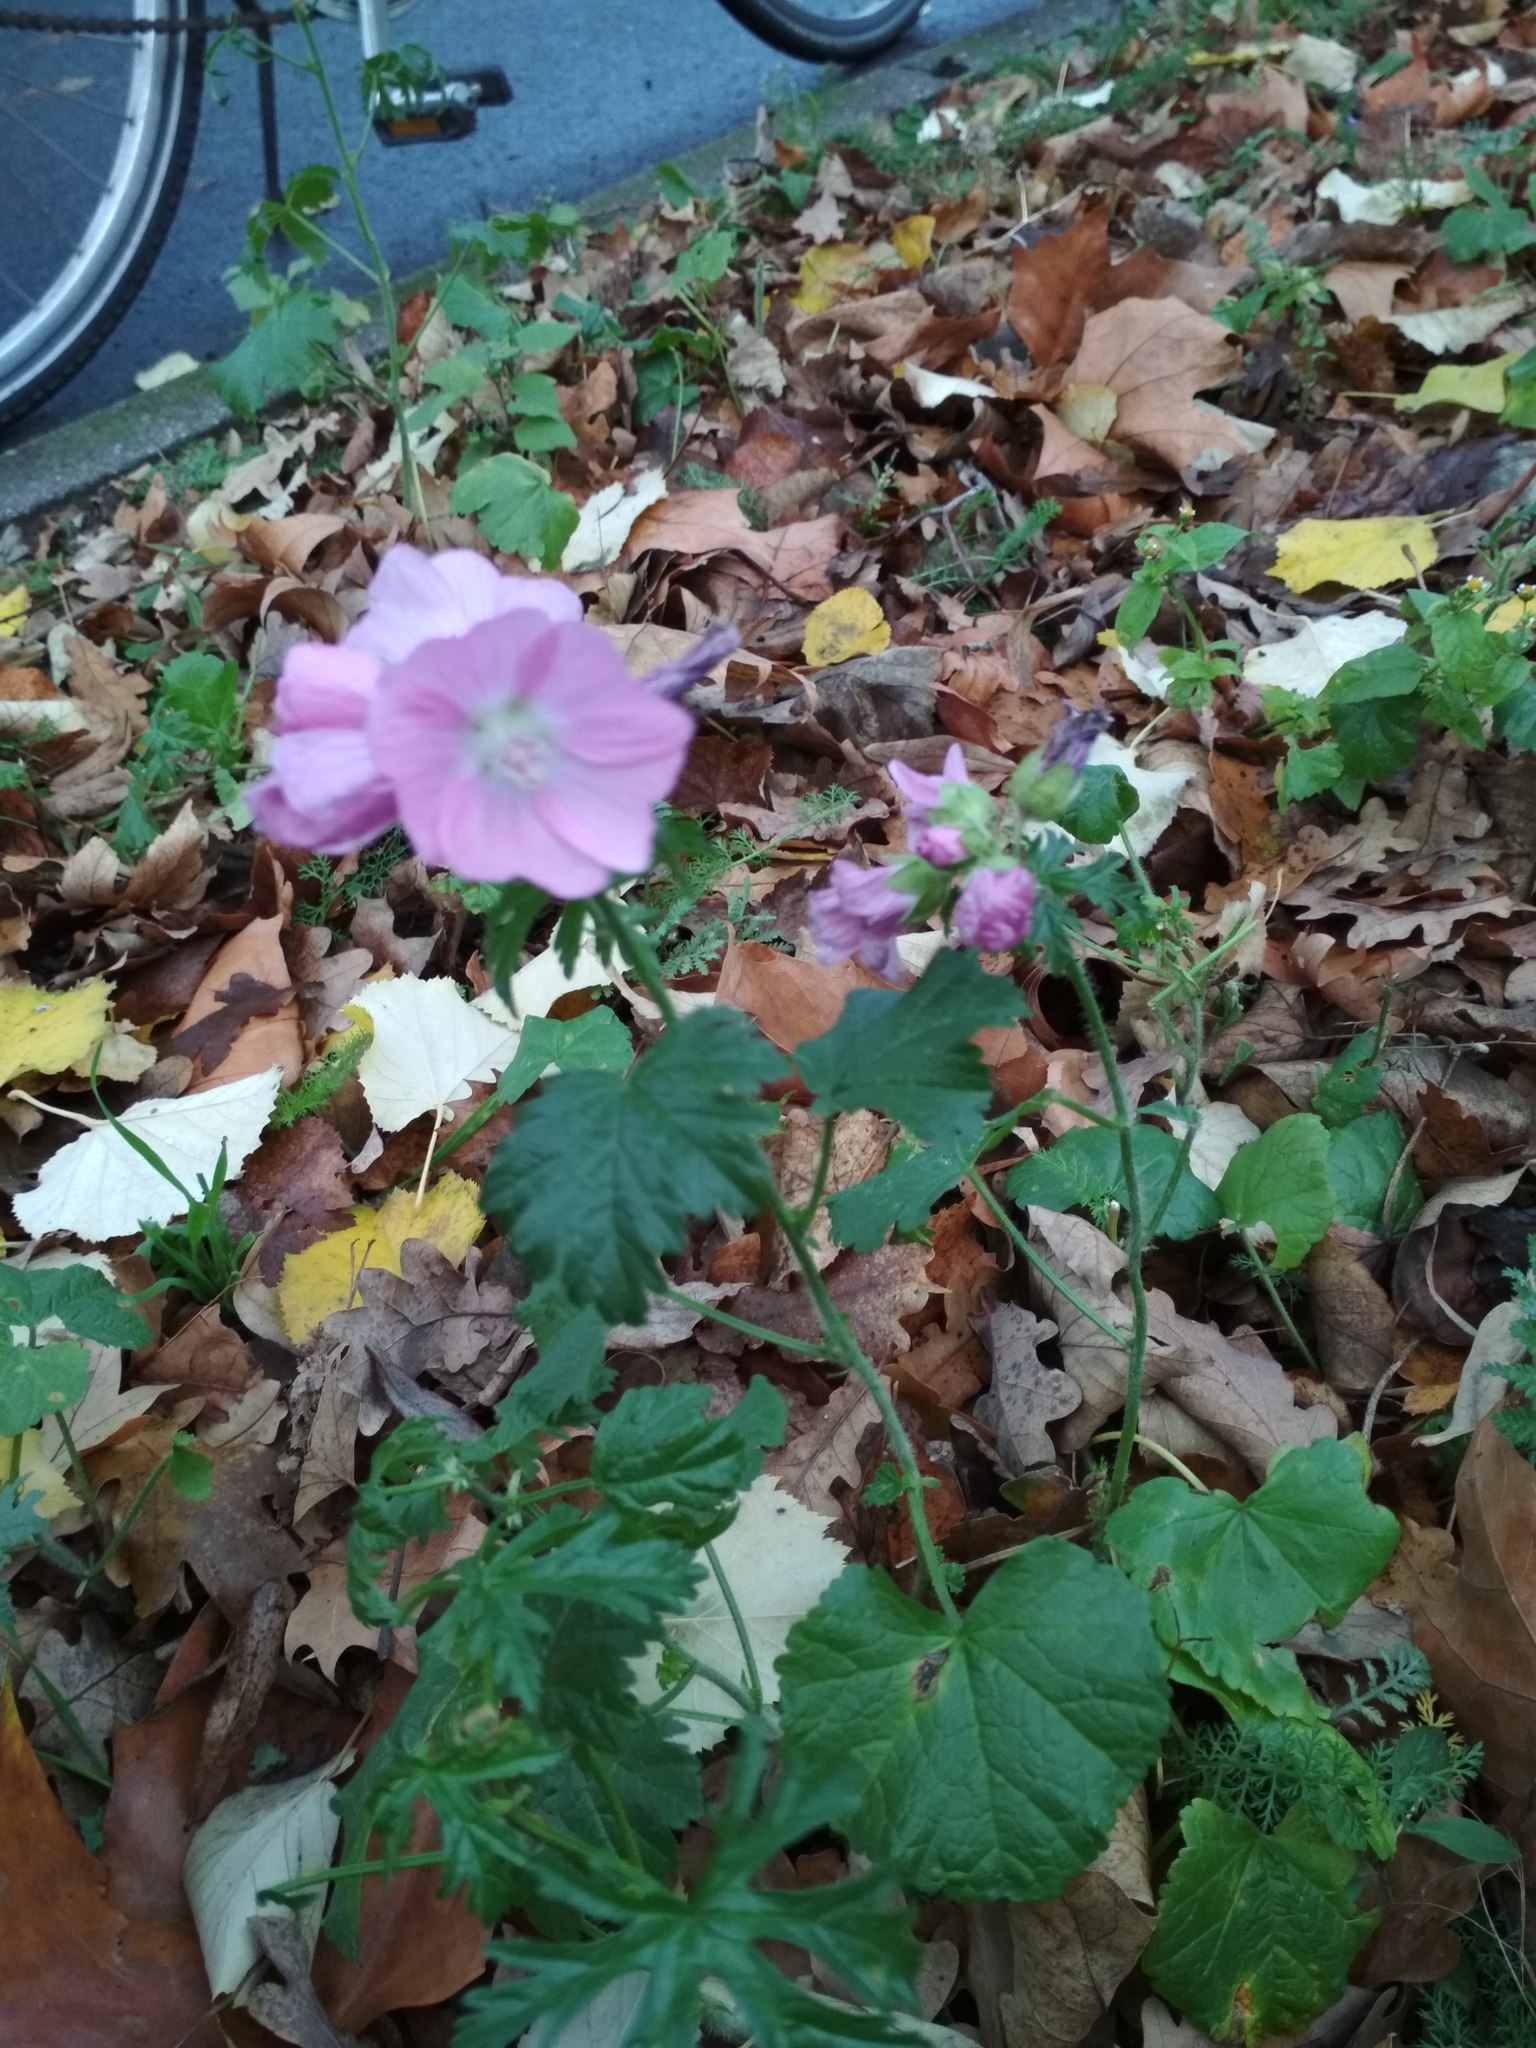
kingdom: Plantae
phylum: Tracheophyta
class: Magnoliopsida
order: Malvales
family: Malvaceae
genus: Malva
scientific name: Malva moschata
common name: Musk mallow
